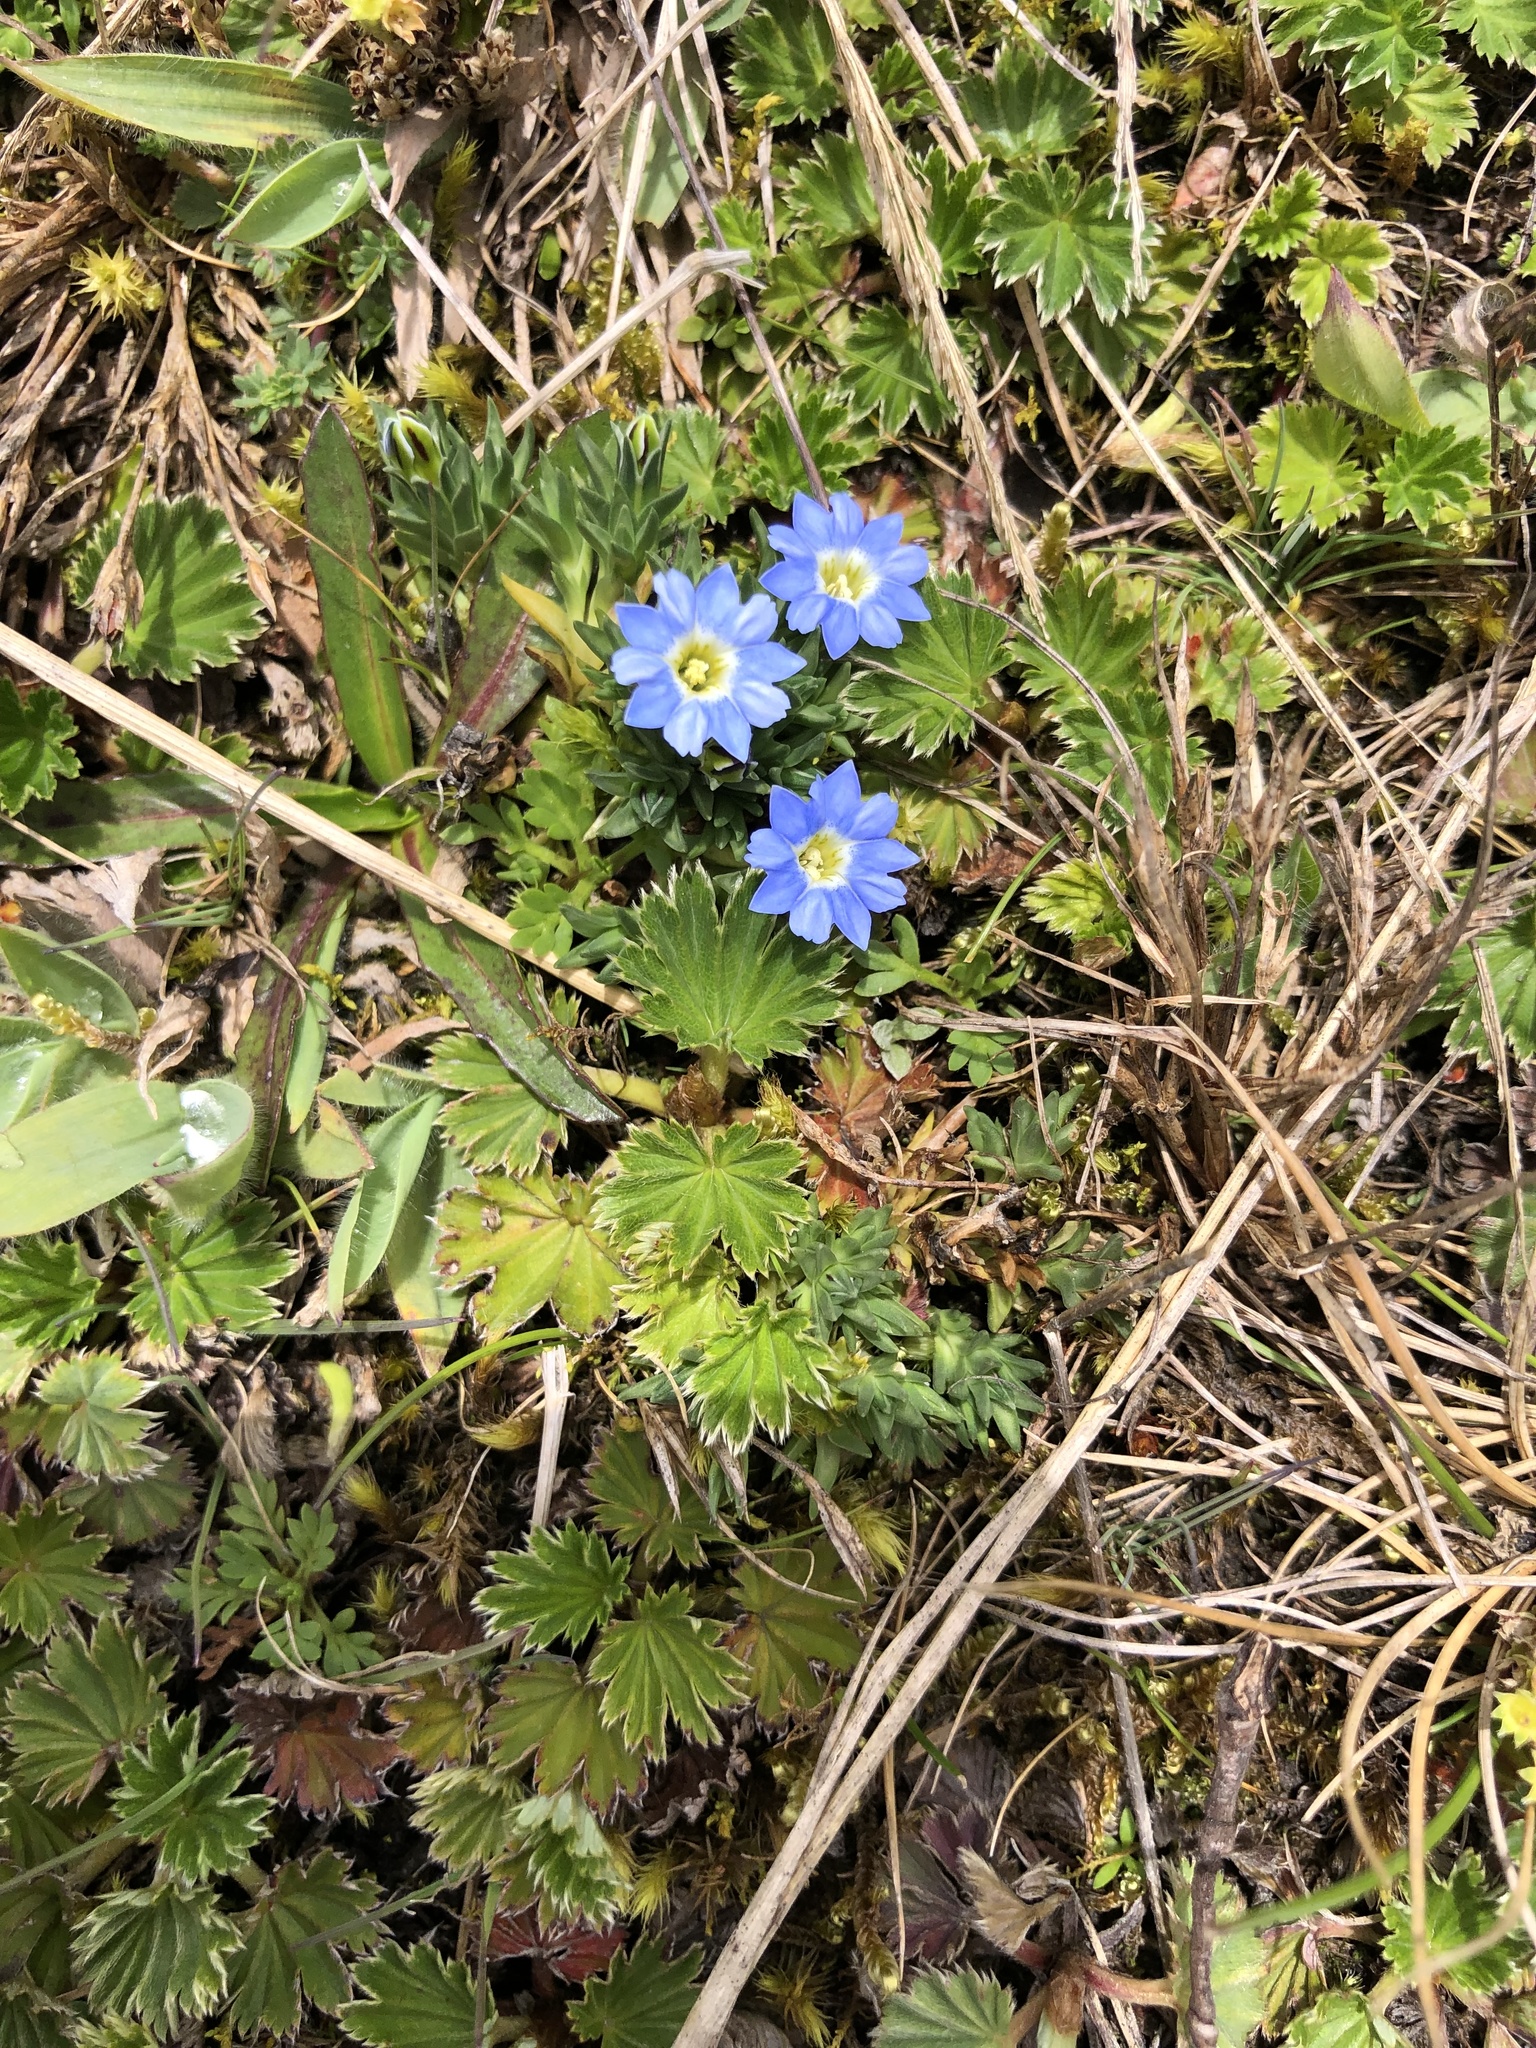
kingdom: Plantae
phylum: Tracheophyta
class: Magnoliopsida
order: Gentianales
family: Gentianaceae
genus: Gentiana
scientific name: Gentiana sedifolia
